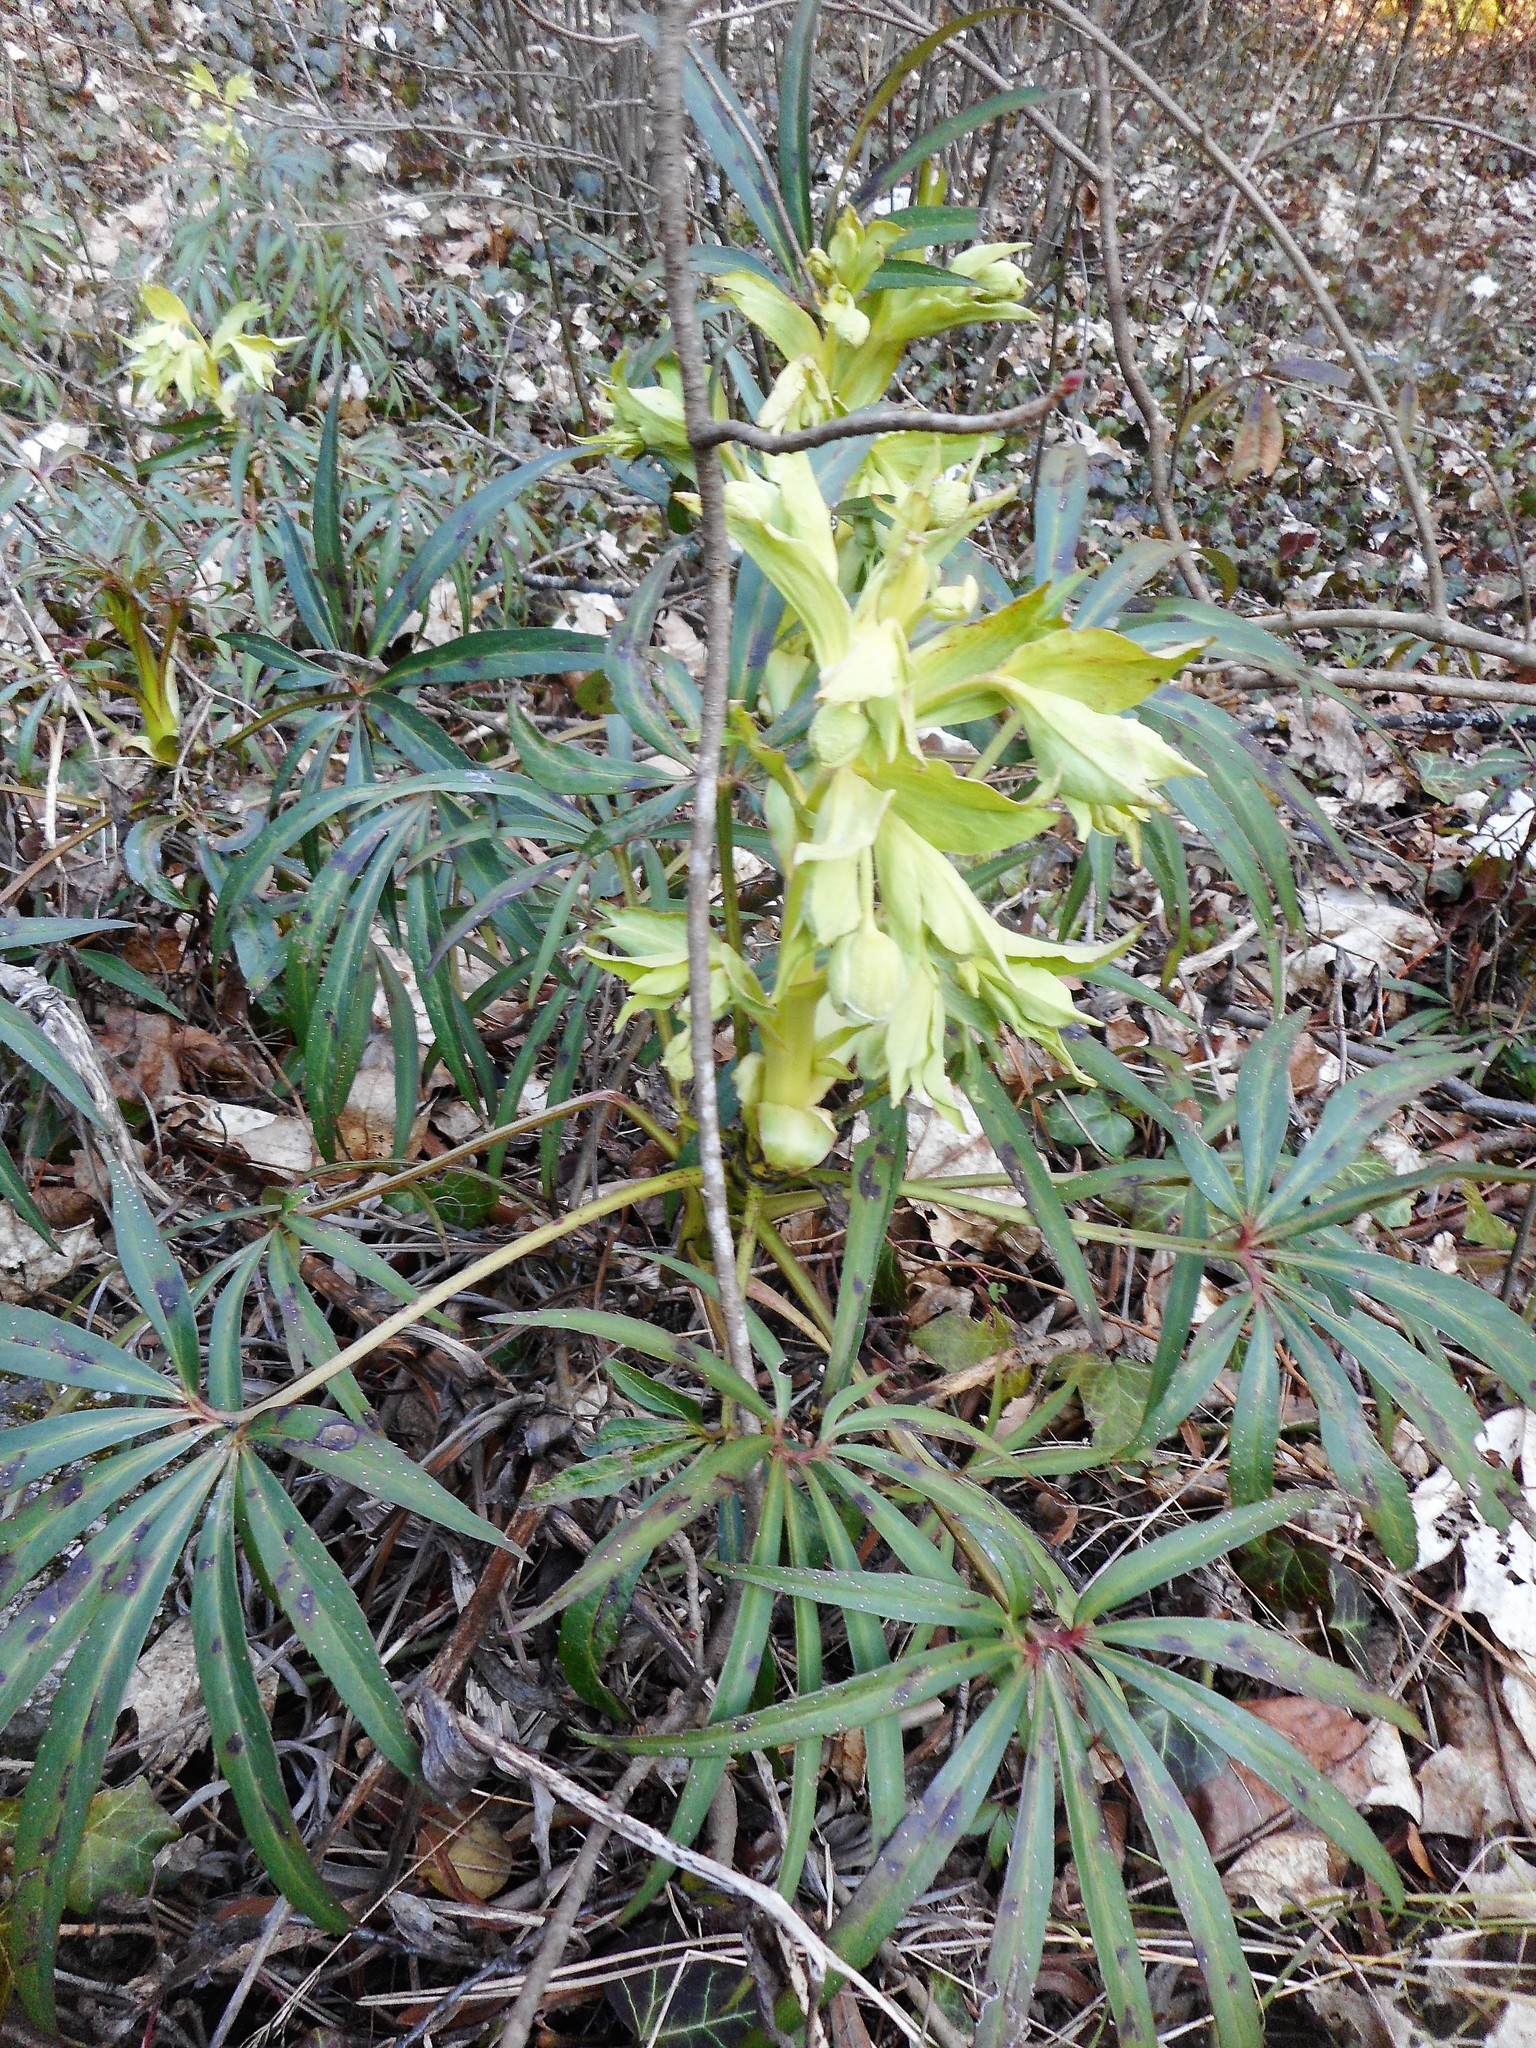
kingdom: Plantae
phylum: Tracheophyta
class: Magnoliopsida
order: Ranunculales
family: Ranunculaceae
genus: Helleborus
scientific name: Helleborus foetidus
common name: Stinking hellebore
